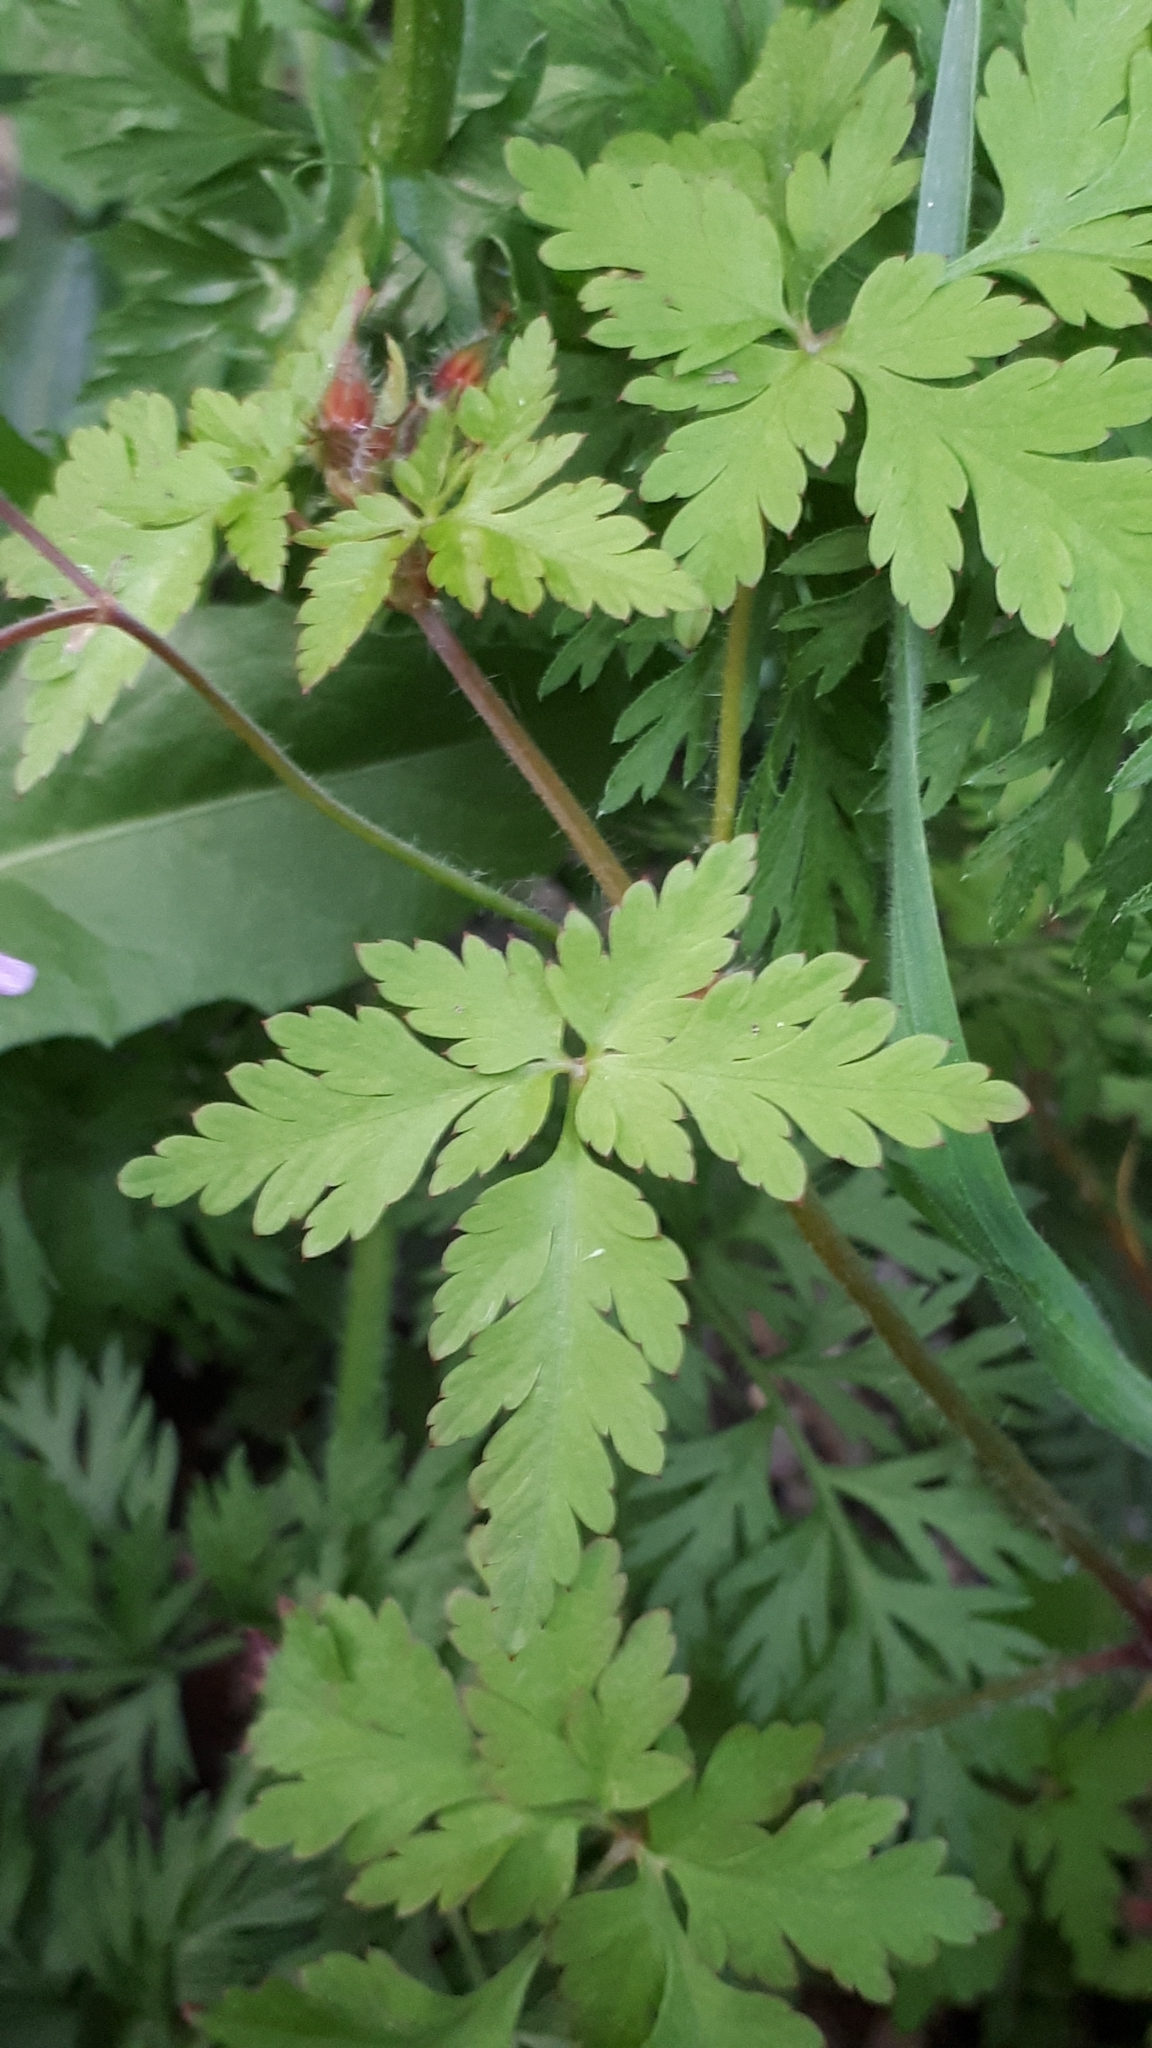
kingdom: Plantae
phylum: Tracheophyta
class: Magnoliopsida
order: Geraniales
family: Geraniaceae
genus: Geranium
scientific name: Geranium robertianum
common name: Herb-robert
